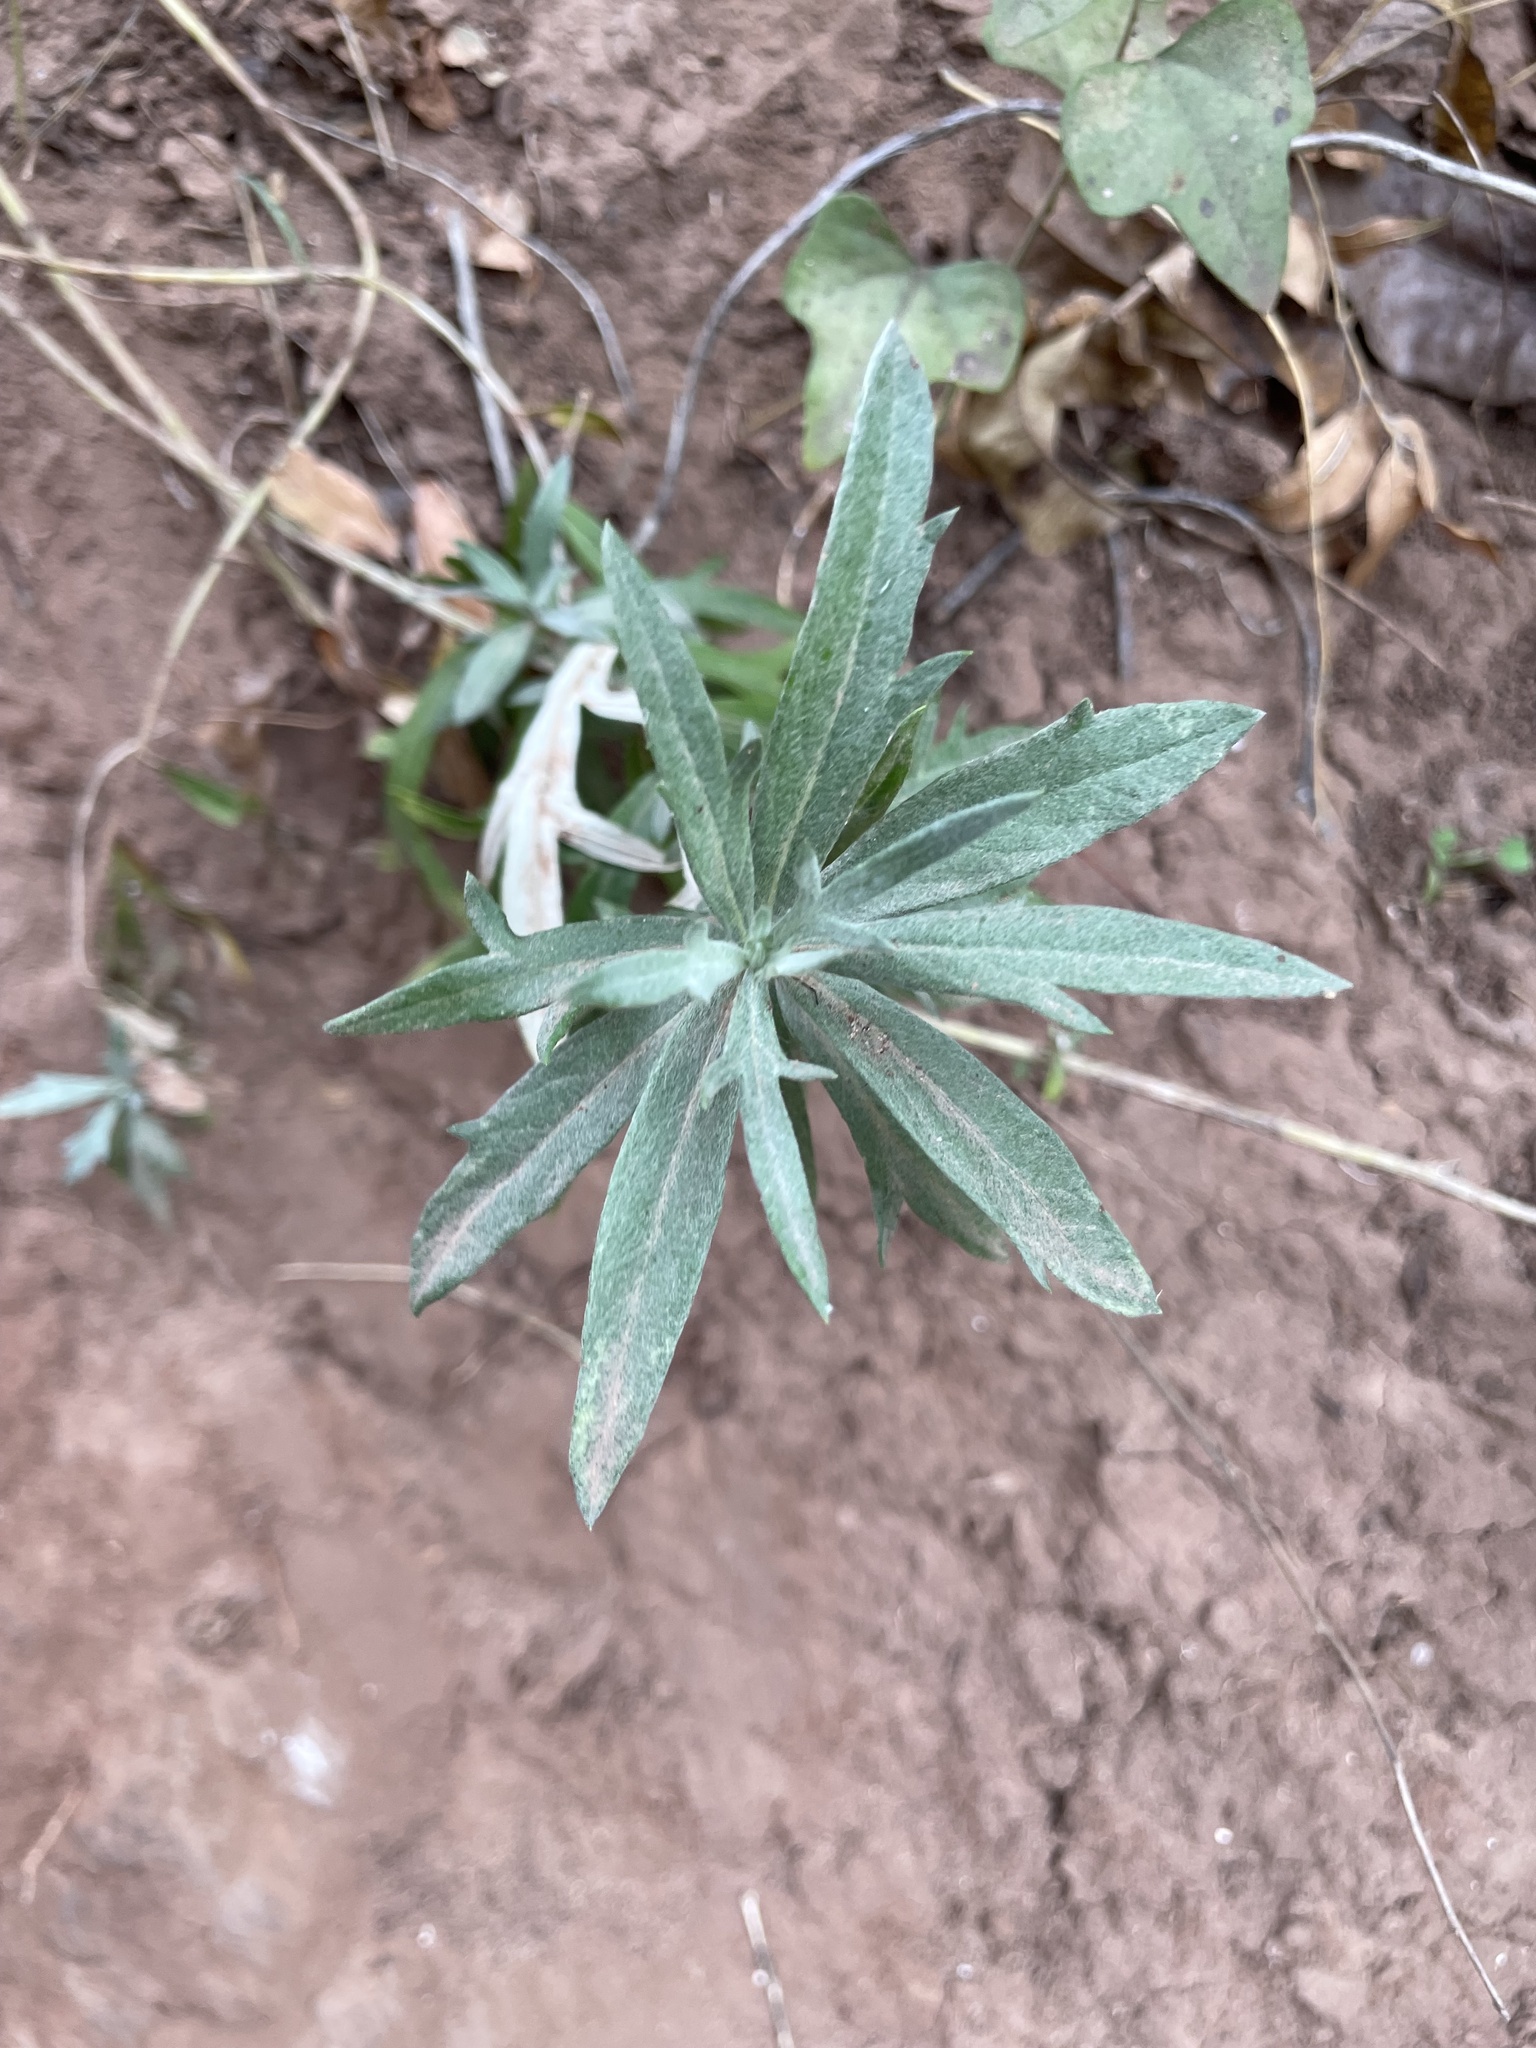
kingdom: Plantae
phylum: Tracheophyta
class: Magnoliopsida
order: Asterales
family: Asteraceae
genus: Artemisia
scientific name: Artemisia ludoviciana
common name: Western mugwort
